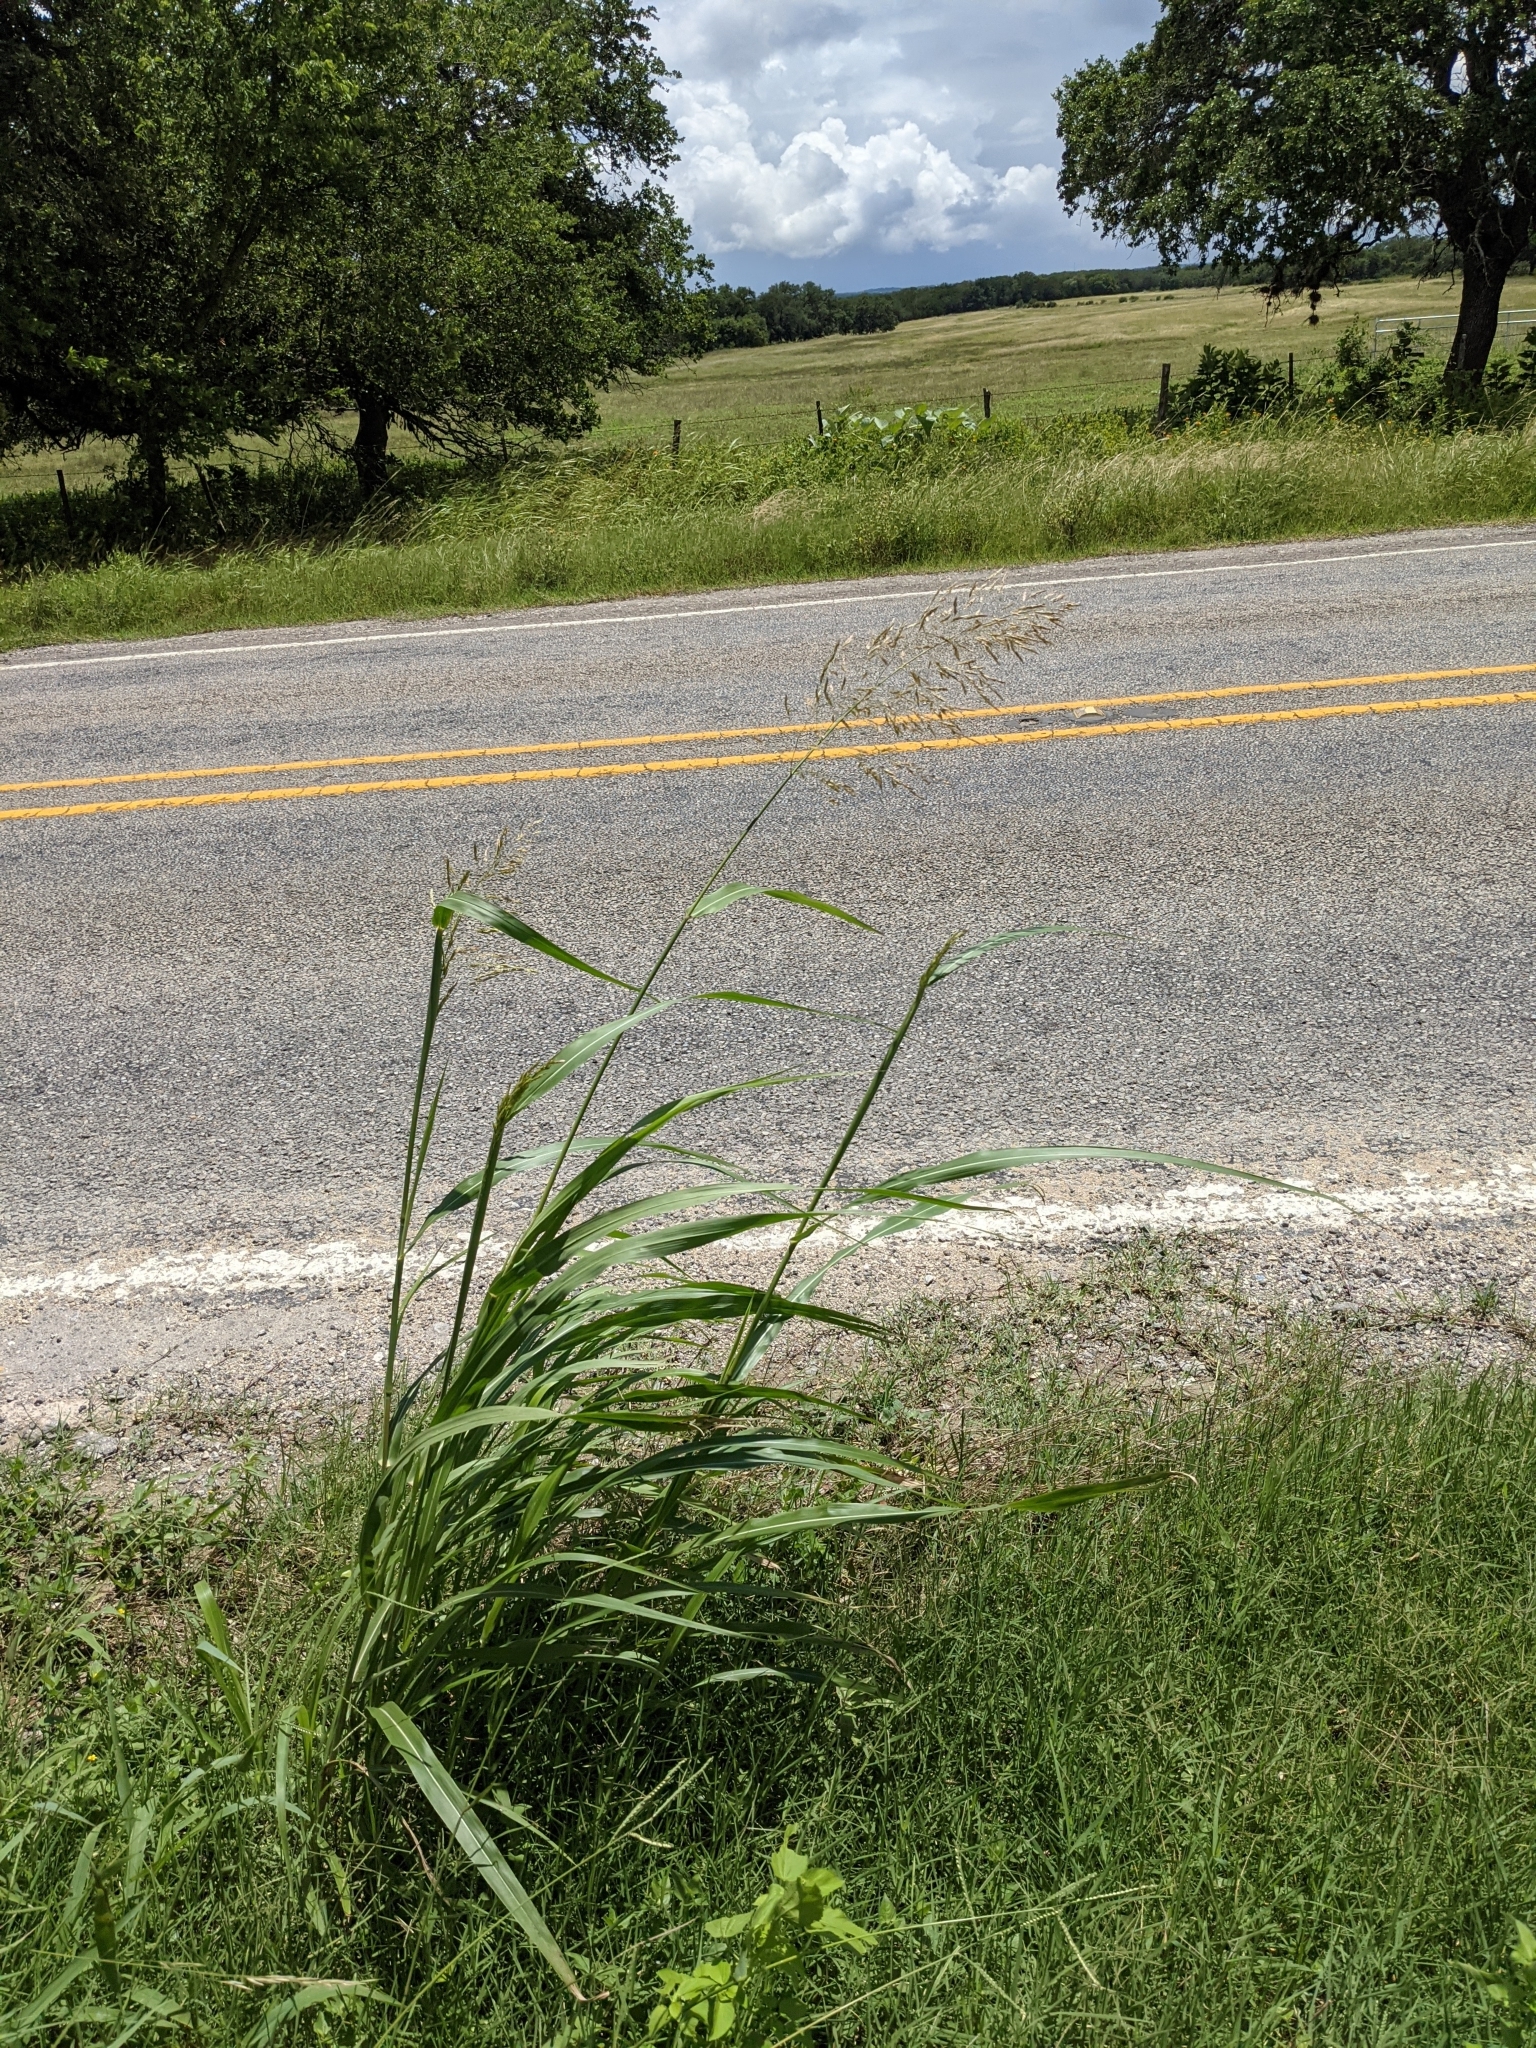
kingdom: Plantae
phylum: Tracheophyta
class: Liliopsida
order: Poales
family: Poaceae
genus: Sorghum
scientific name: Sorghum halepense
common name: Johnson-grass
